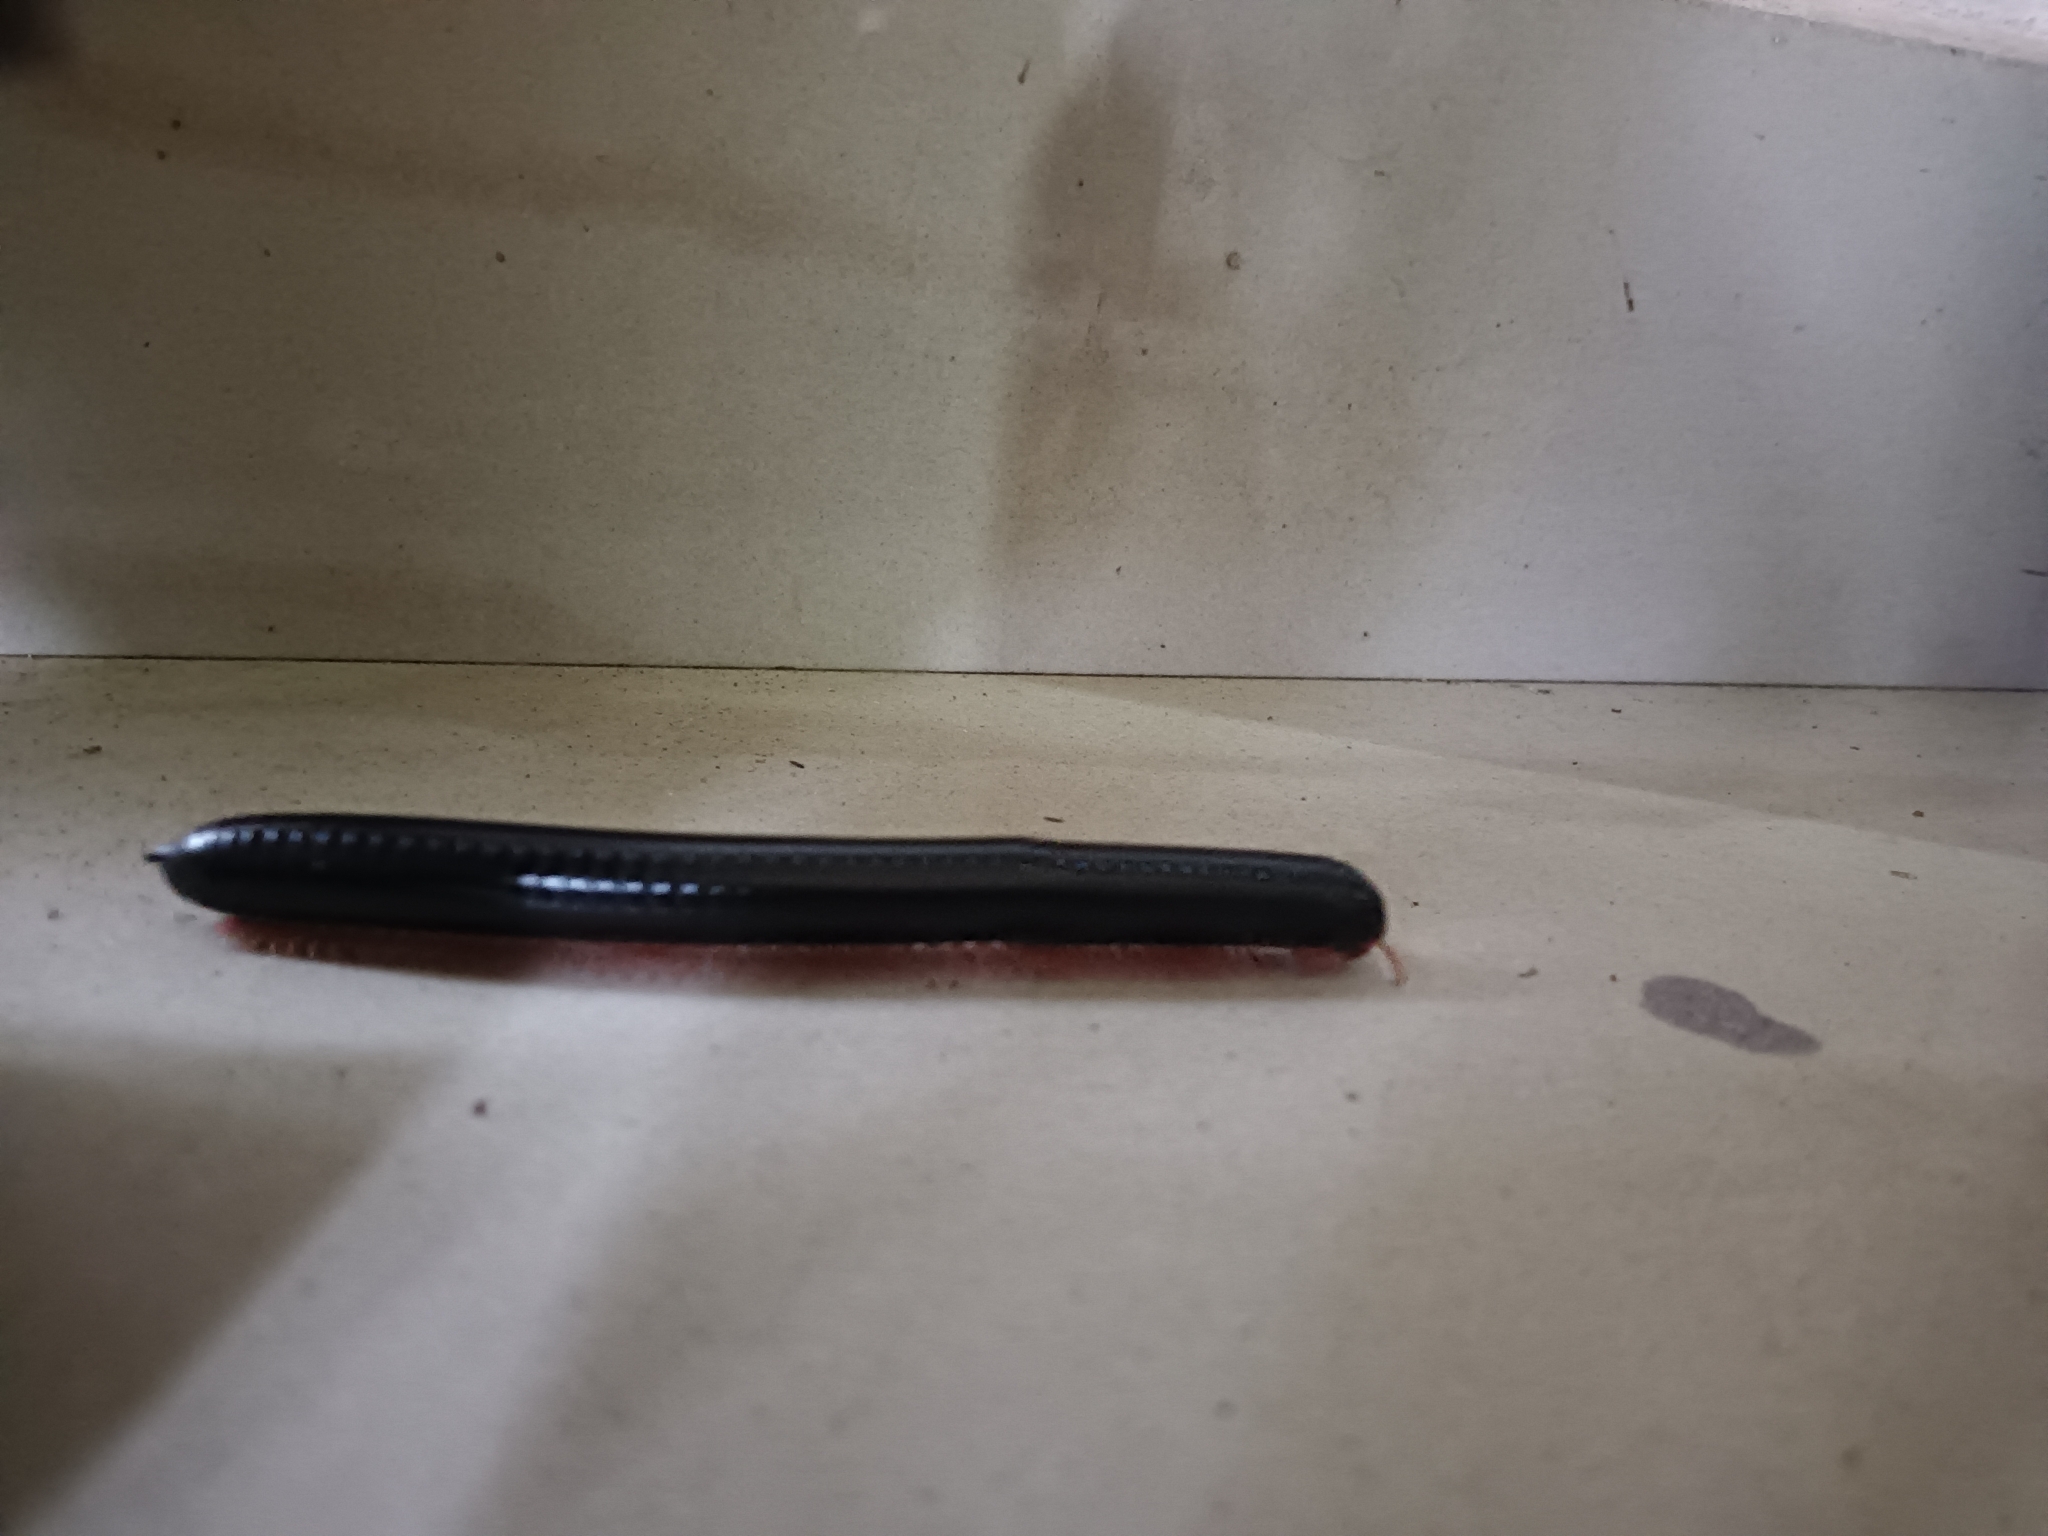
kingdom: Animalia
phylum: Arthropoda
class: Diplopoda
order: Spirostreptida
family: Harpagophoridae
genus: Phyllogonostreptus
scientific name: Phyllogonostreptus nigrolabiatus
